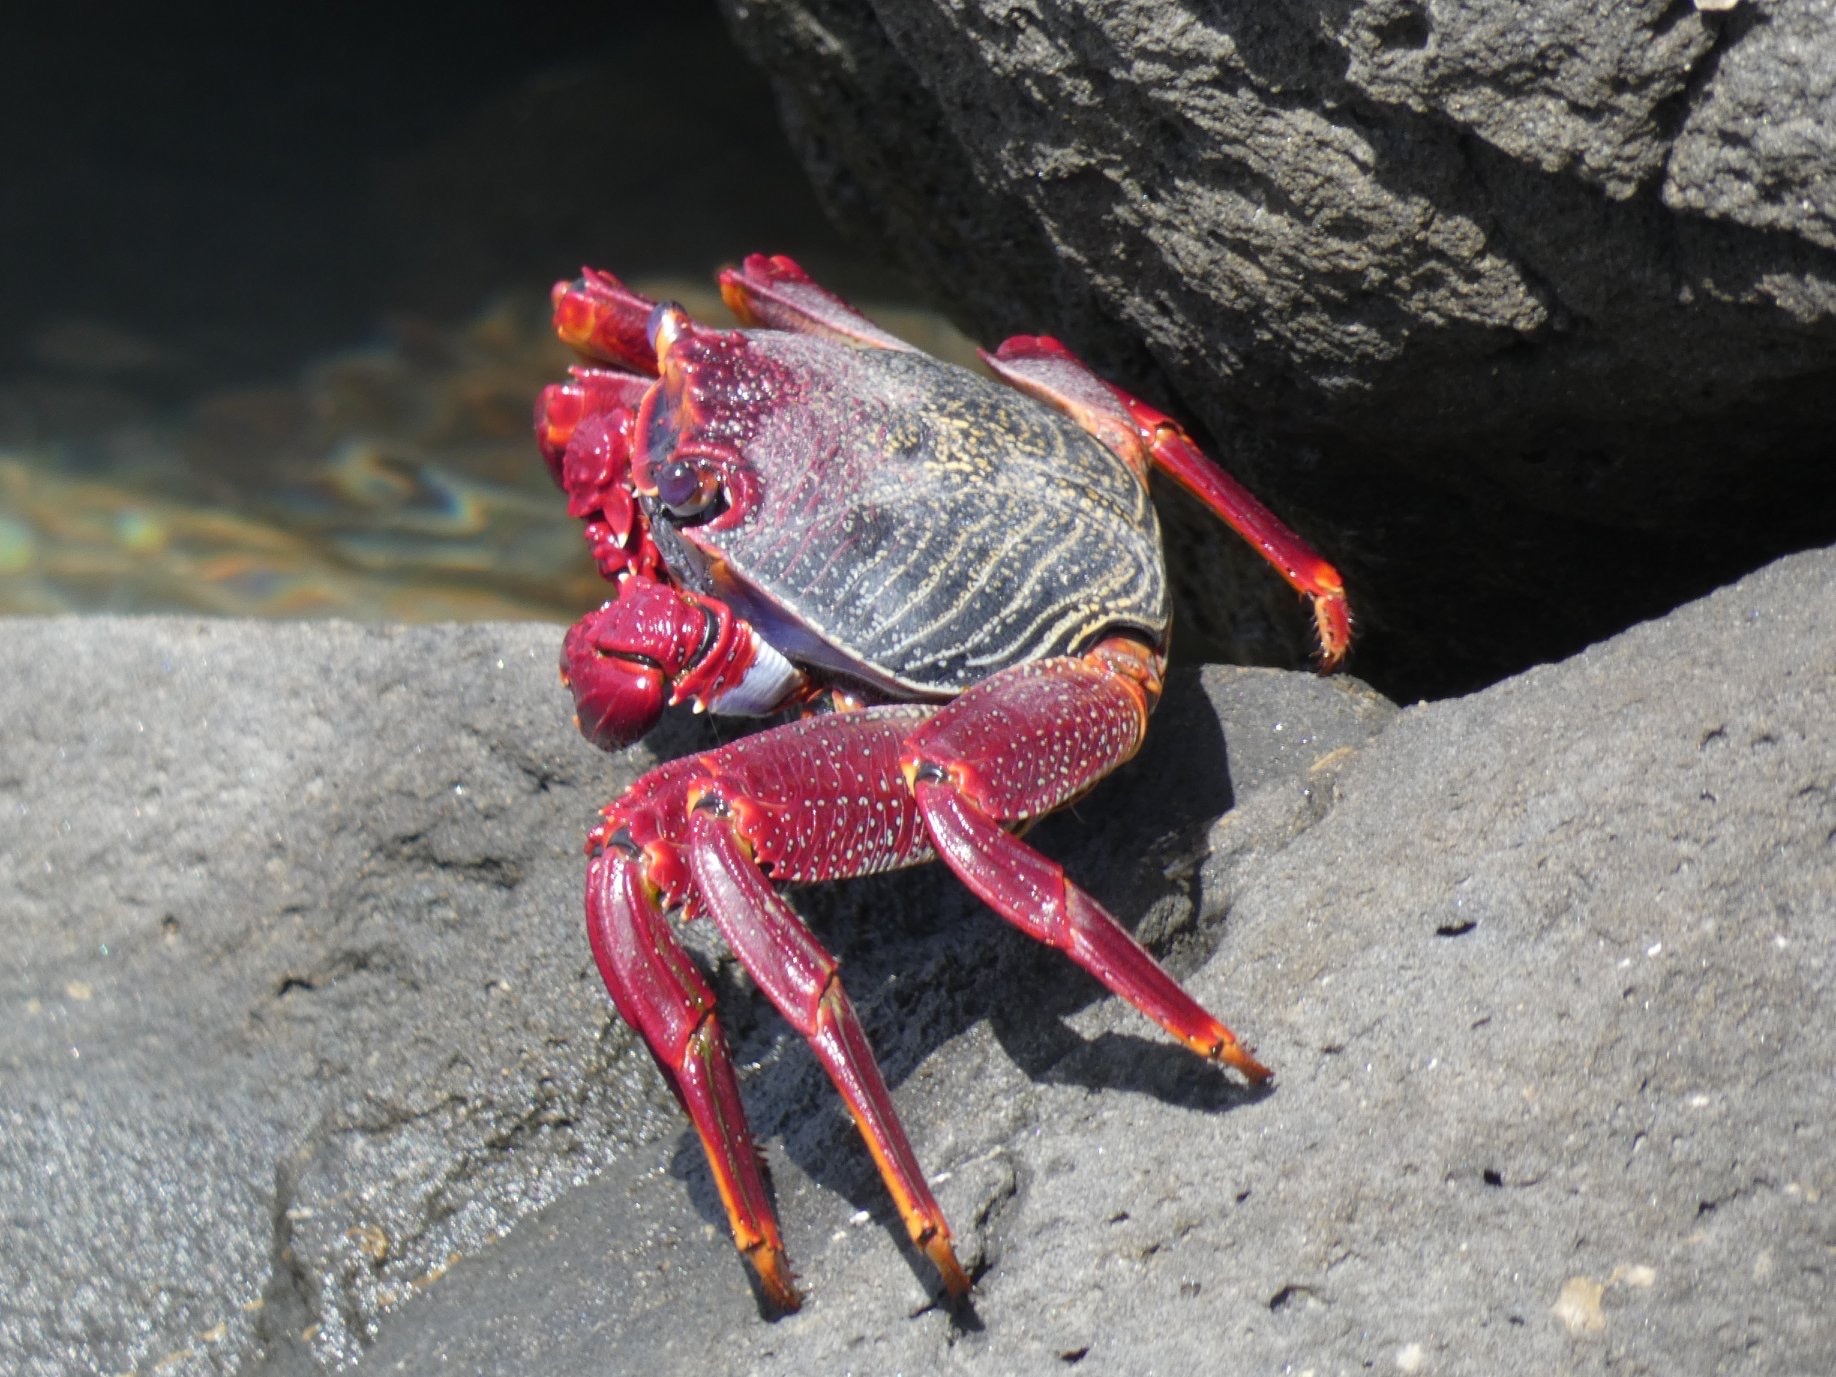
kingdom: Animalia
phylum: Arthropoda
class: Malacostraca
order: Decapoda
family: Grapsidae
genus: Grapsus
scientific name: Grapsus adscensionis
